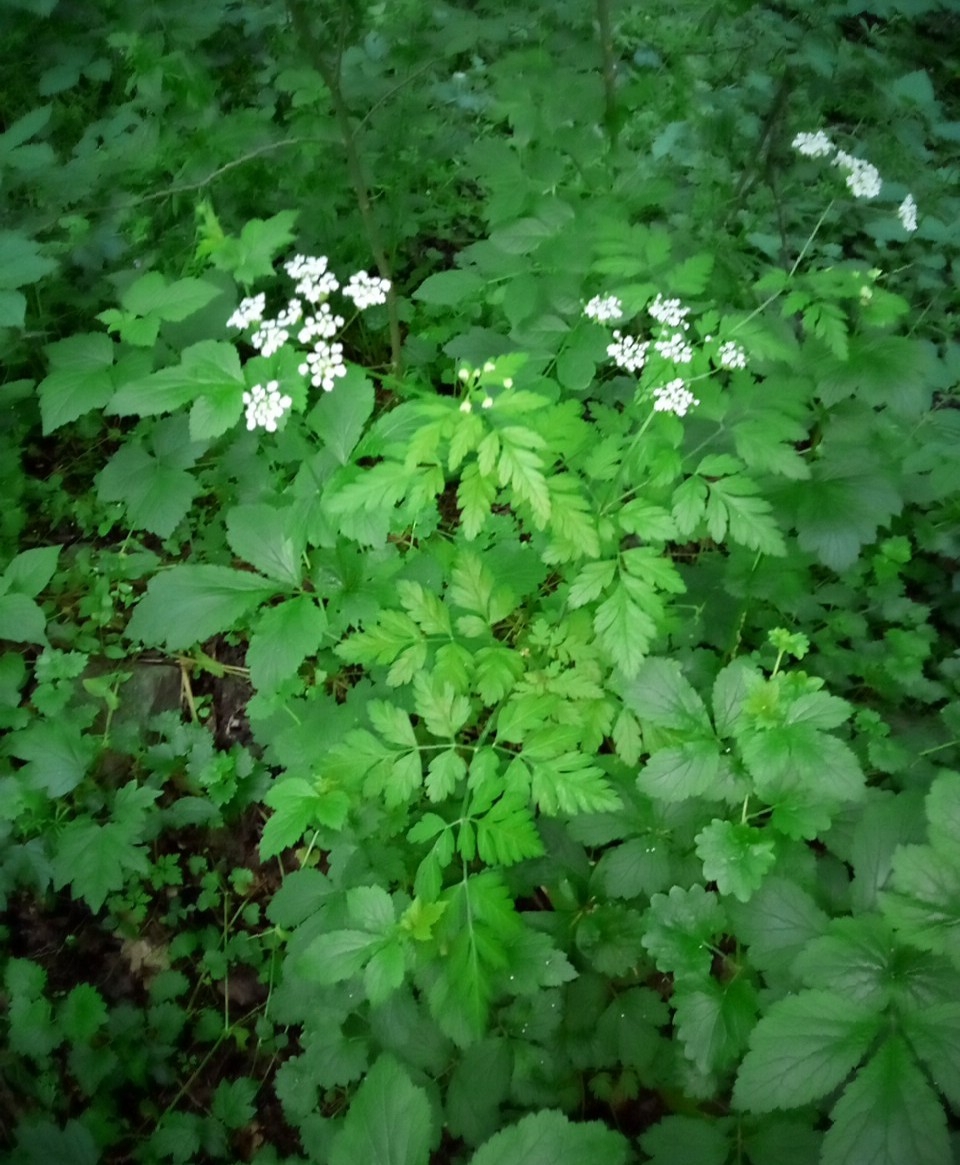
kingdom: Plantae
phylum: Tracheophyta
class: Magnoliopsida
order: Apiales
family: Apiaceae
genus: Chaerophyllum
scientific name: Chaerophyllum temulum
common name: Rough chervil
